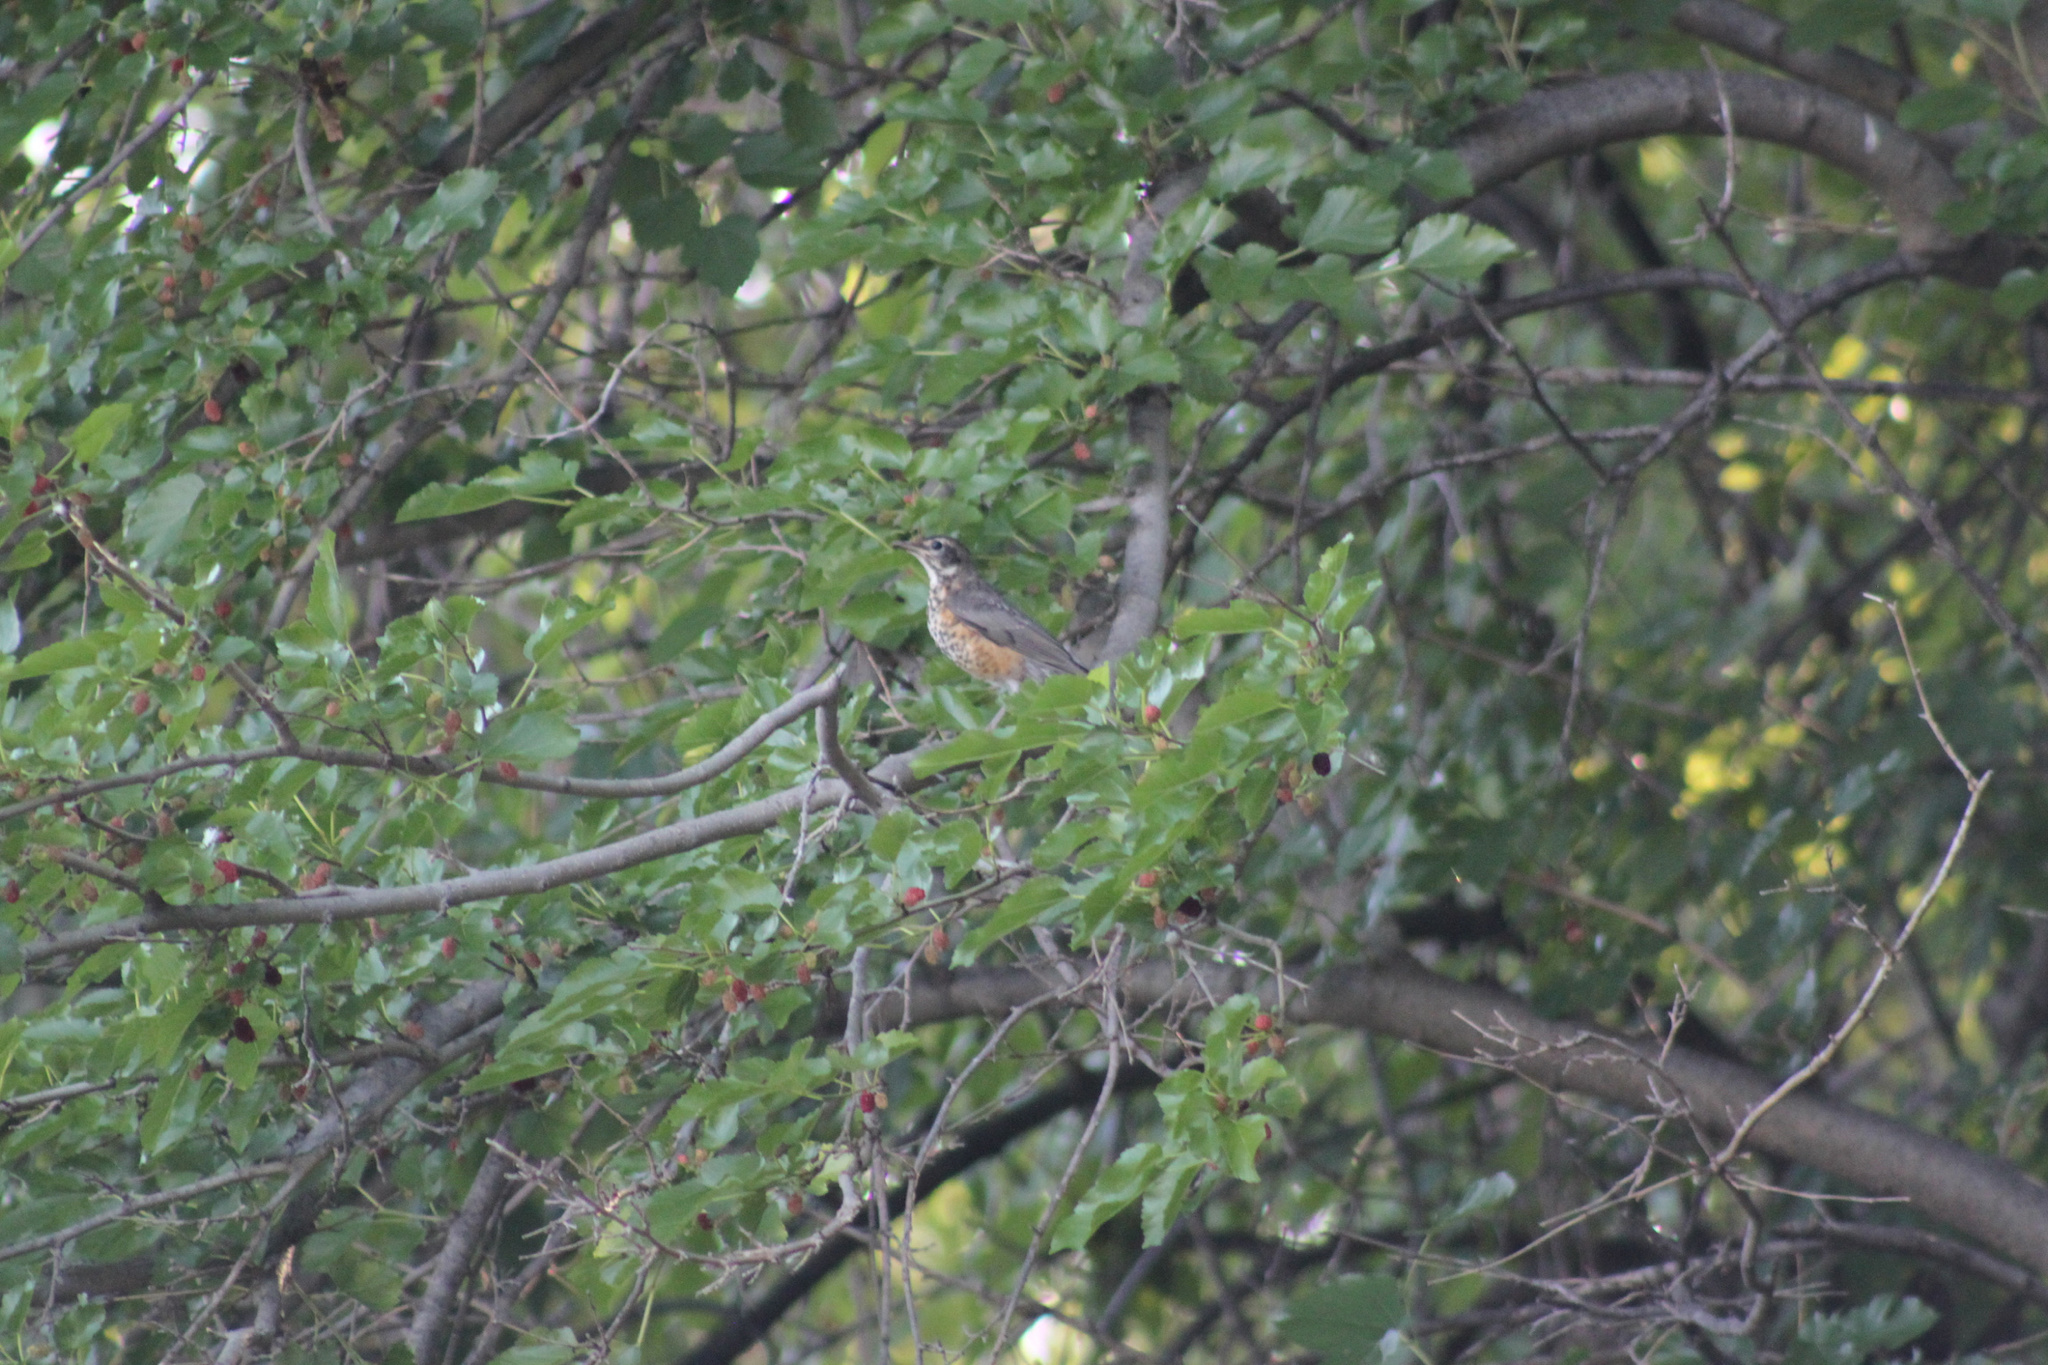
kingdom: Animalia
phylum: Chordata
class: Aves
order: Passeriformes
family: Turdidae
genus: Turdus
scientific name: Turdus migratorius
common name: American robin
